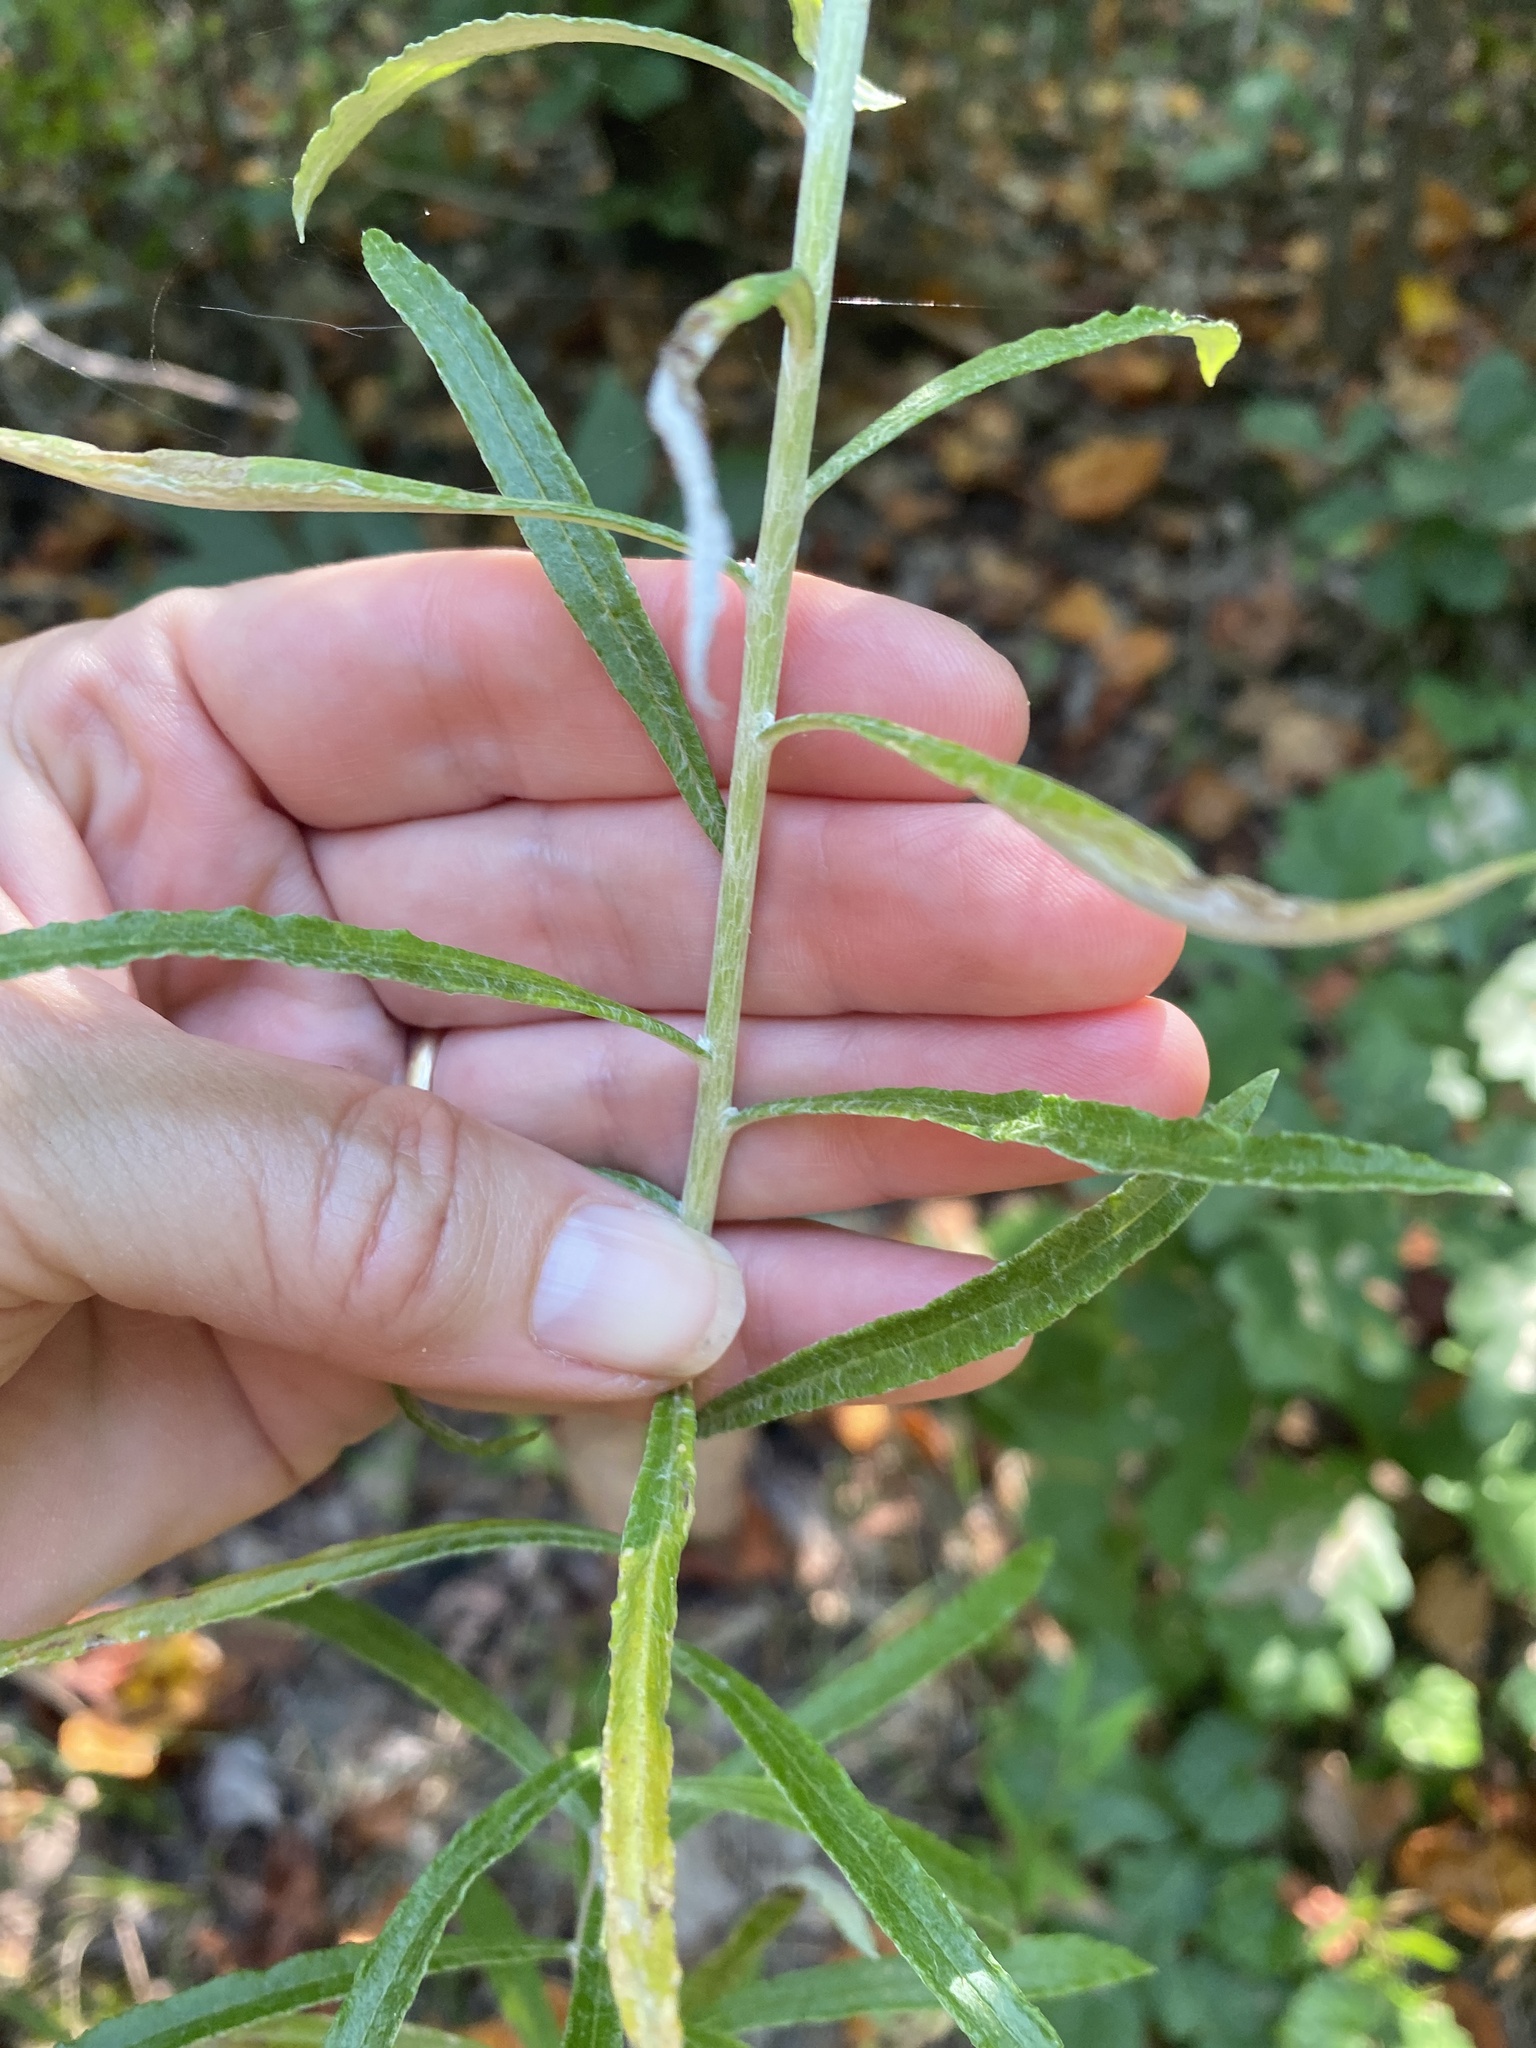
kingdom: Plantae
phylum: Tracheophyta
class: Magnoliopsida
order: Asterales
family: Asteraceae
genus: Pseudognaphalium
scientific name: Pseudognaphalium obtusifolium
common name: Eastern rabbit-tobacco
